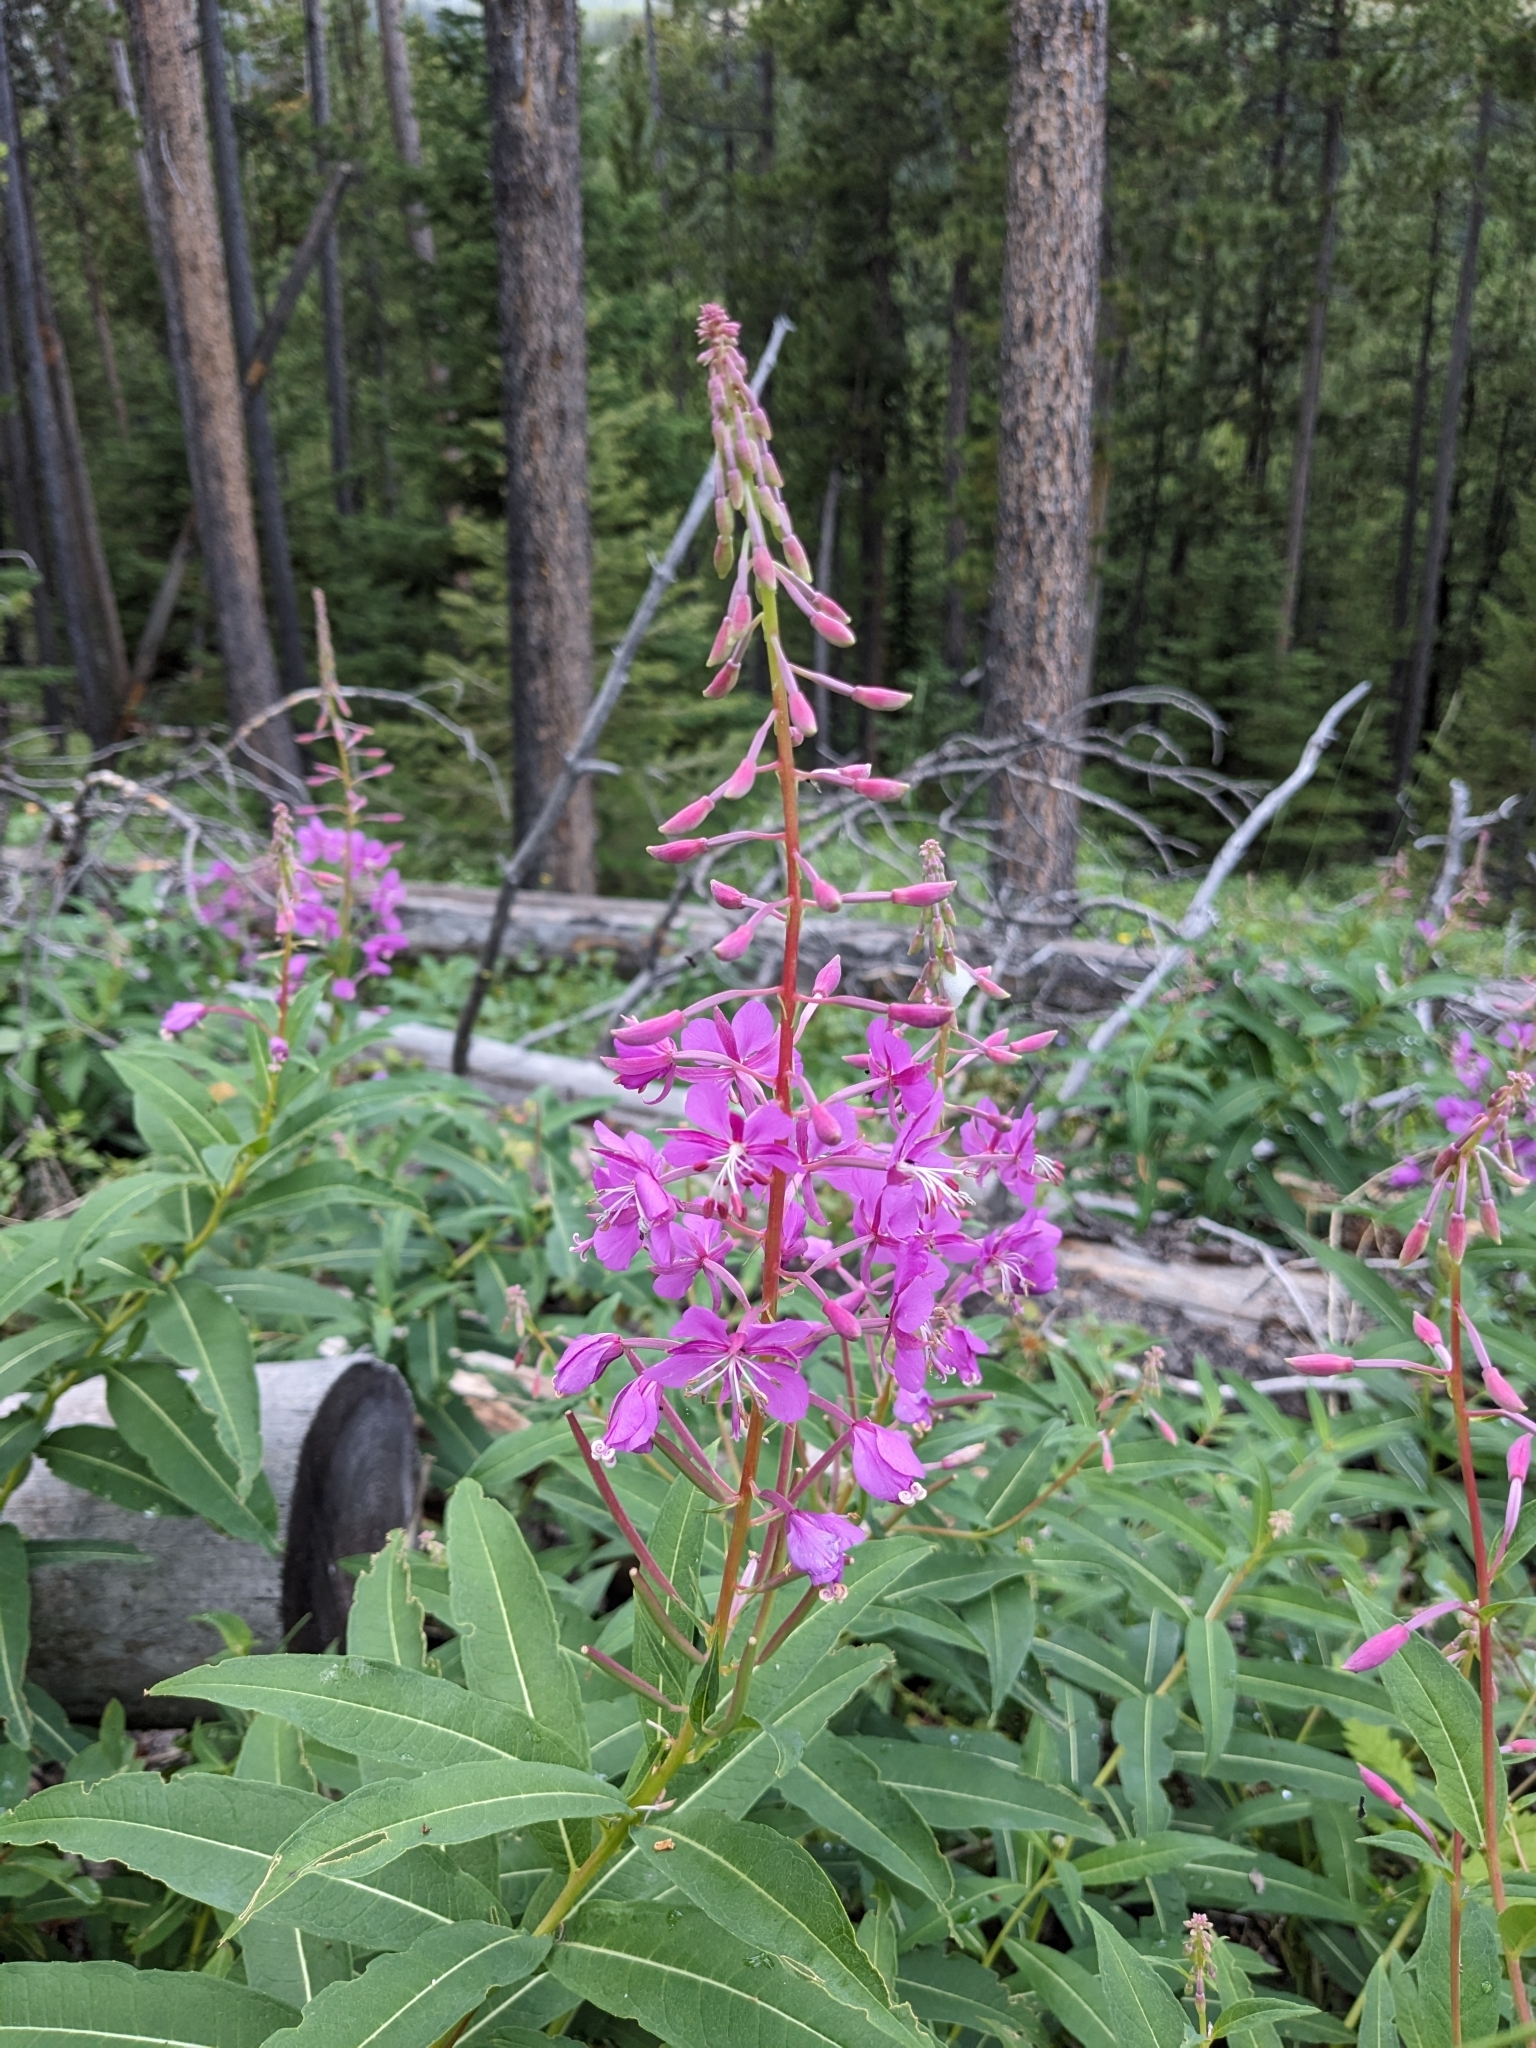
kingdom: Plantae
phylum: Tracheophyta
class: Magnoliopsida
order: Myrtales
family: Onagraceae
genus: Chamaenerion
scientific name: Chamaenerion angustifolium
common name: Fireweed
